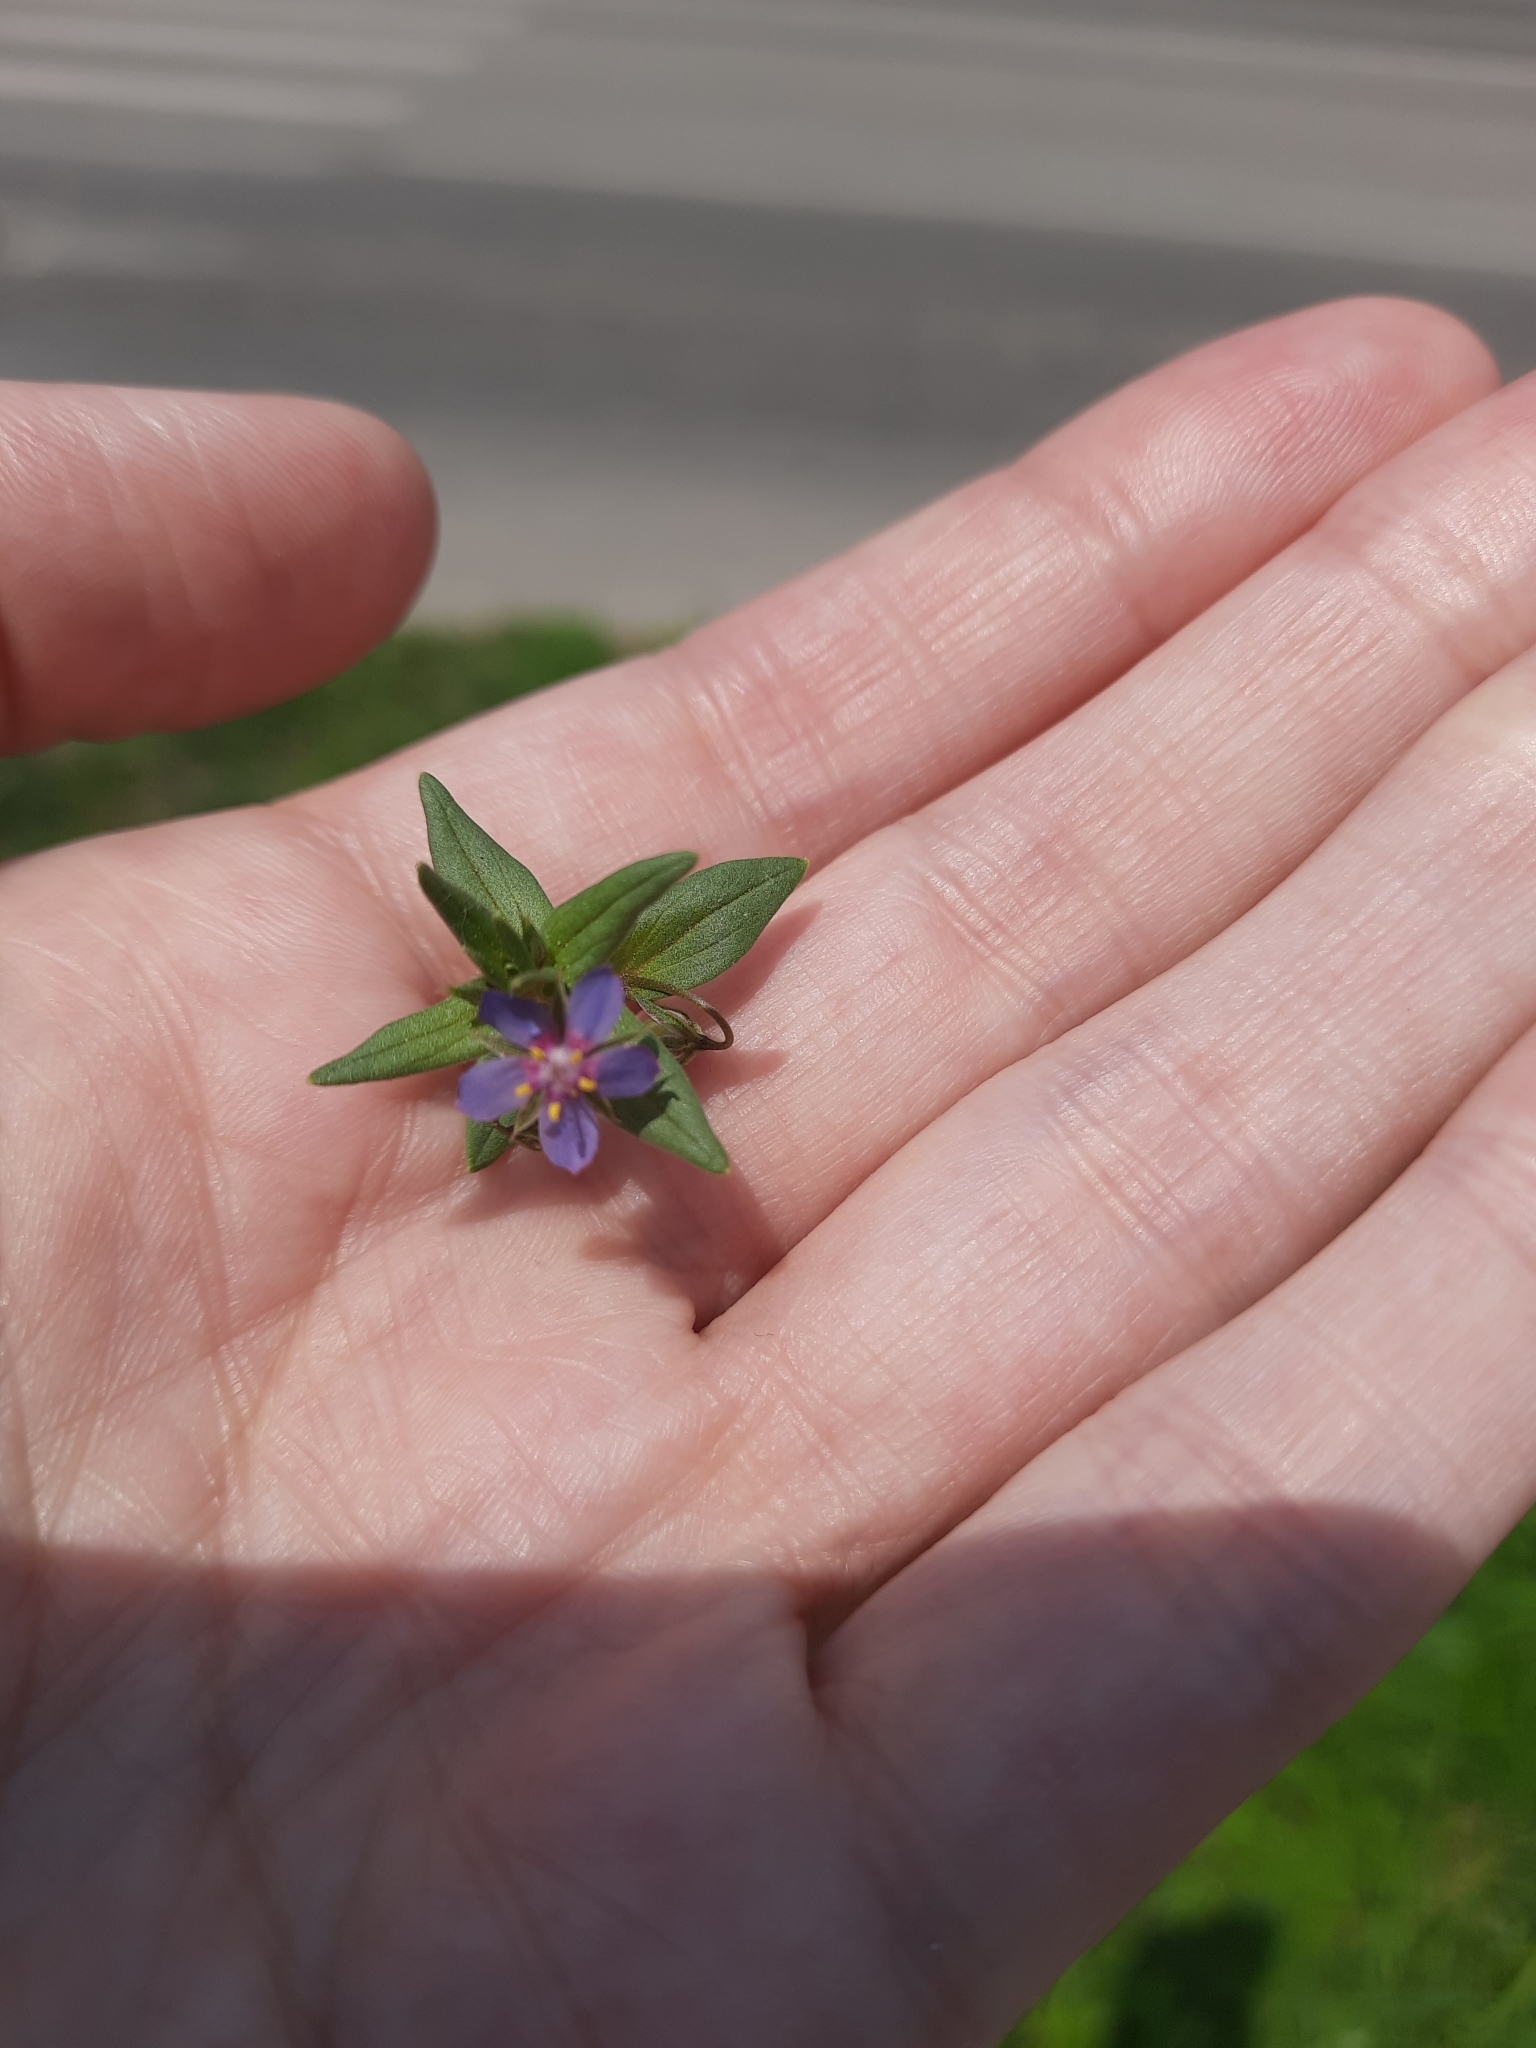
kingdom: Plantae
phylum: Tracheophyta
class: Magnoliopsida
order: Ericales
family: Primulaceae
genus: Lysimachia
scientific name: Lysimachia foemina
